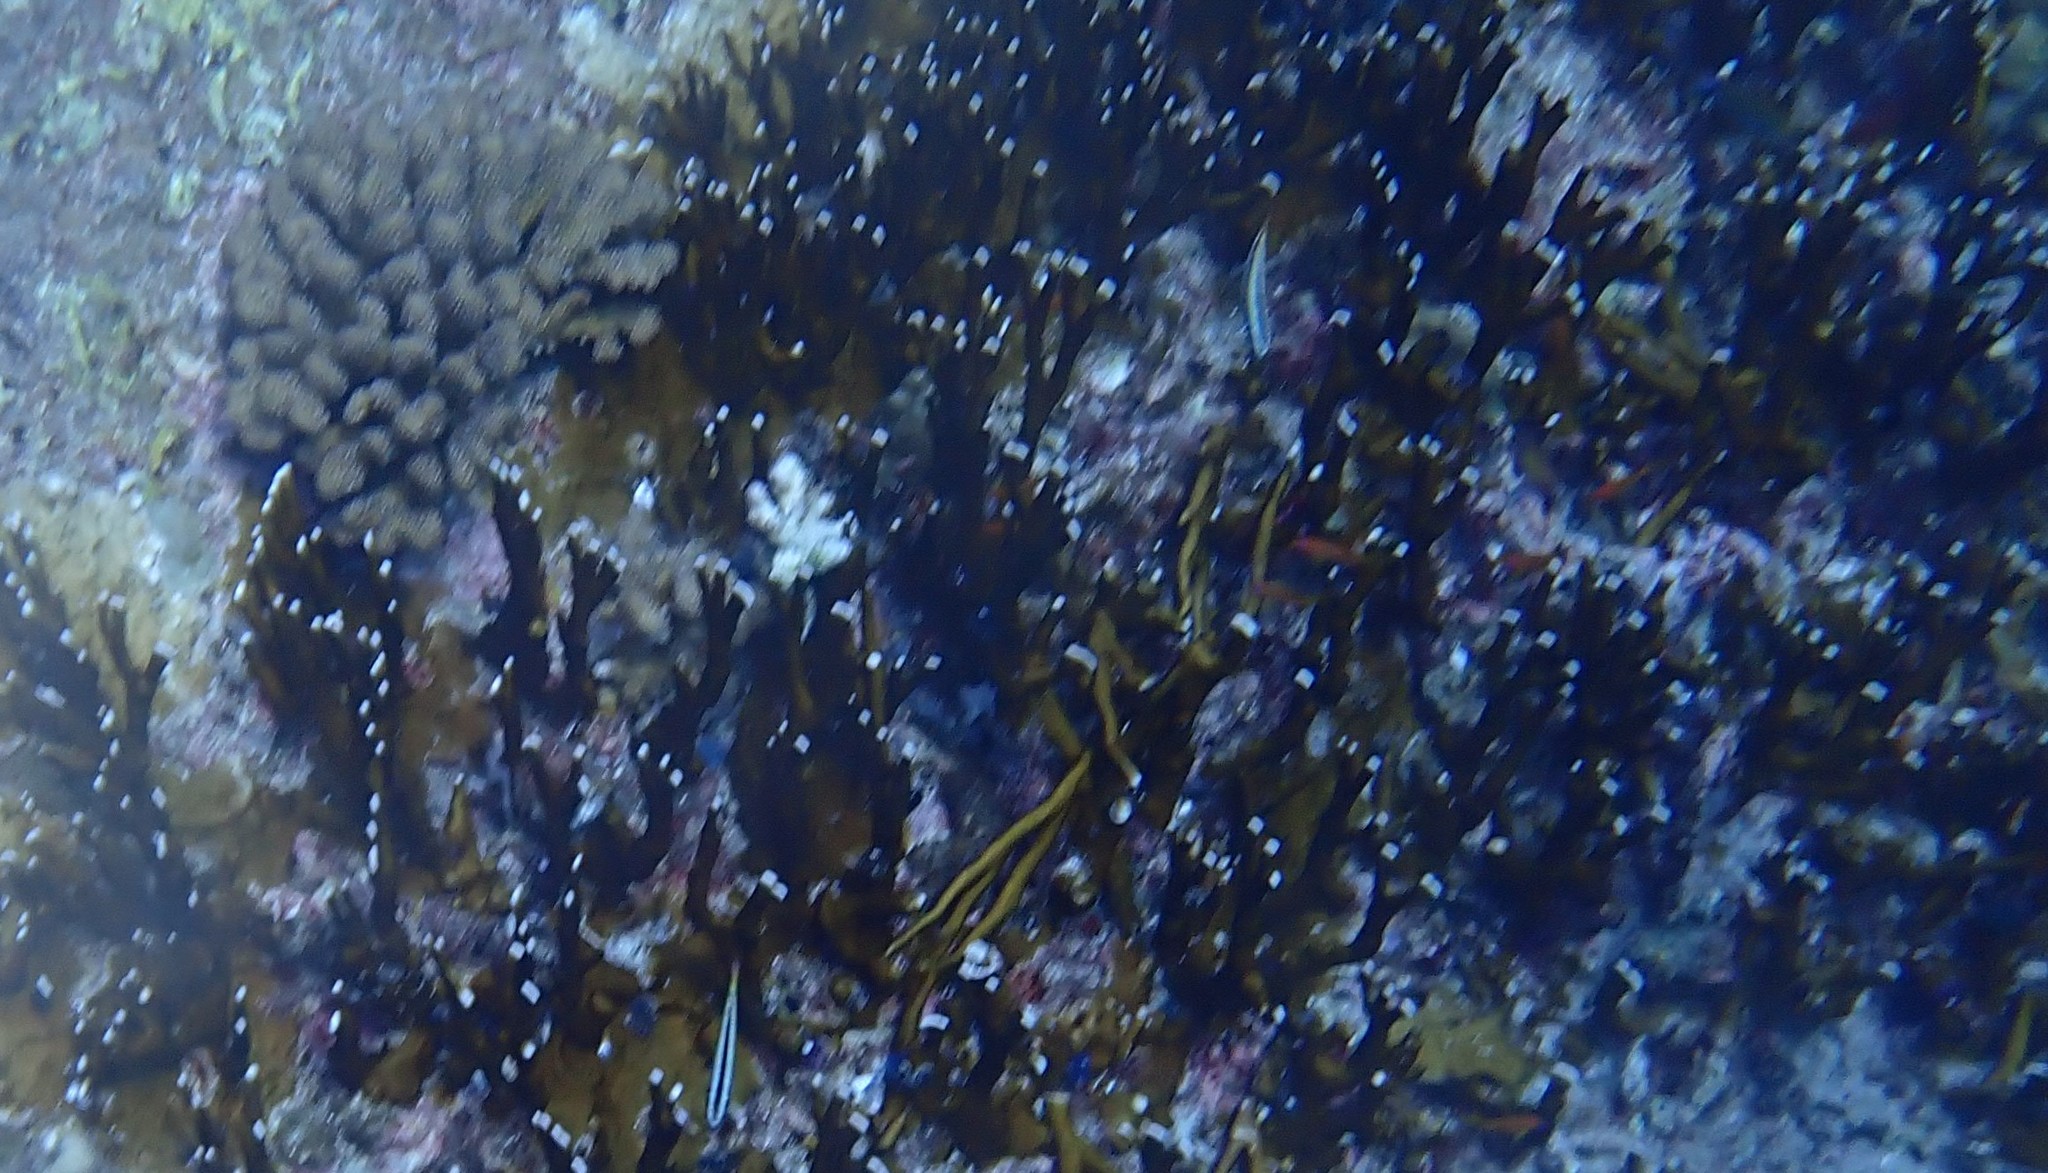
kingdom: Animalia
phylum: Cnidaria
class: Hydrozoa
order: Anthoathecata
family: Milleporidae
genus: Millepora
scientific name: Millepora tenera
